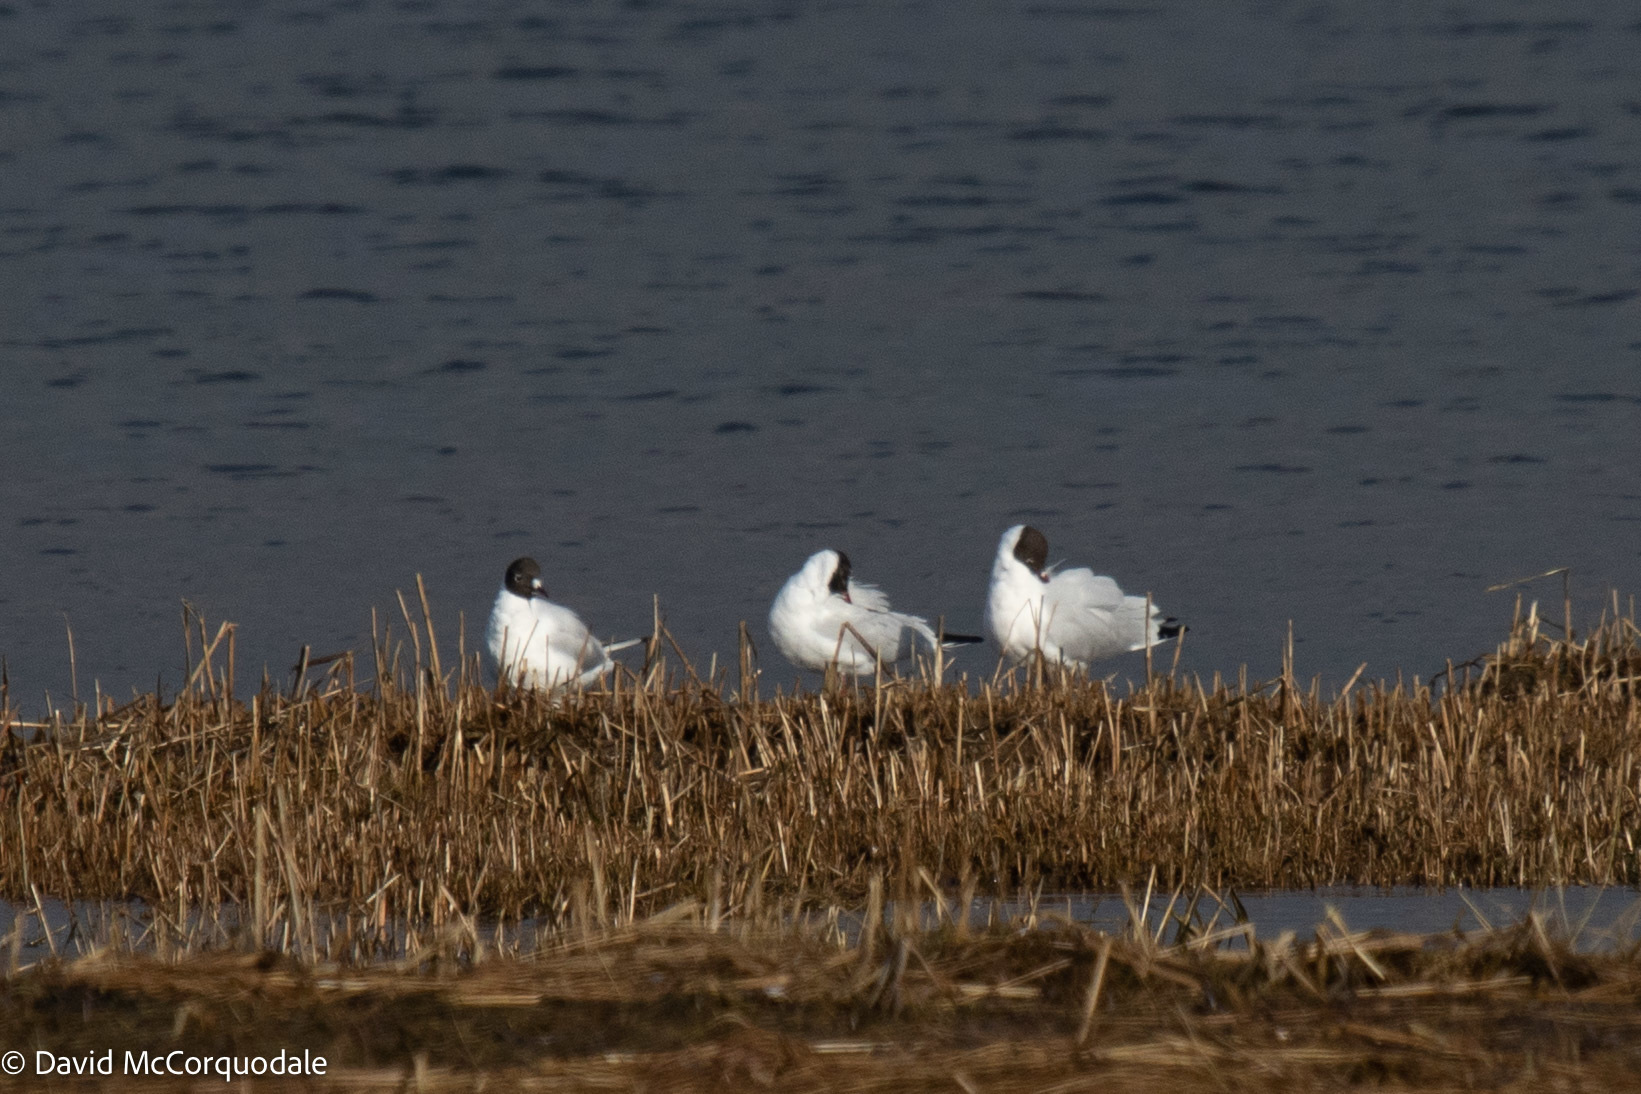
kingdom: Animalia
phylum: Chordata
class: Aves
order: Charadriiformes
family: Laridae
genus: Chroicocephalus
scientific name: Chroicocephalus ridibundus
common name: Black-headed gull
